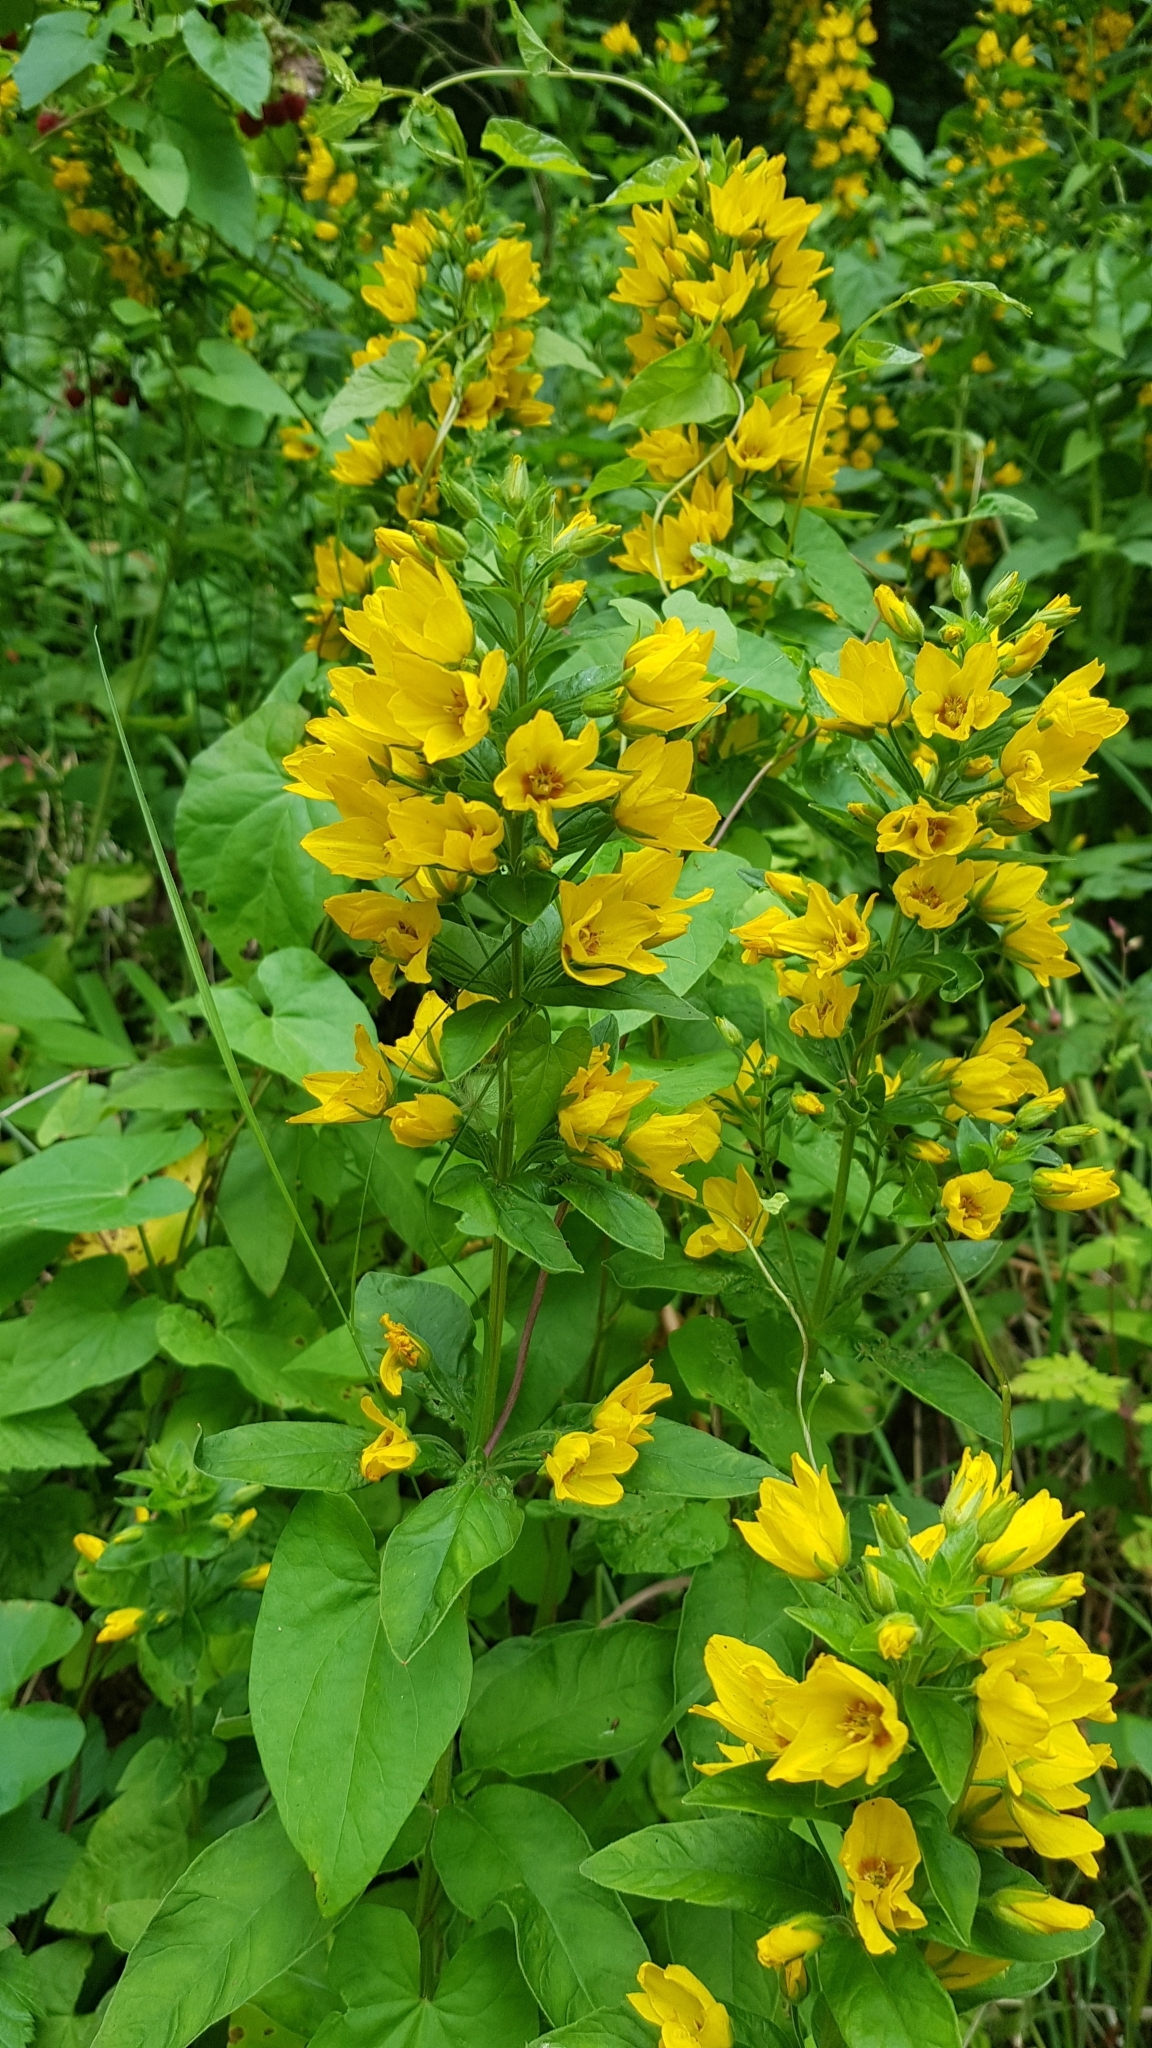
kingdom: Plantae
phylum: Tracheophyta
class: Magnoliopsida
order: Ericales
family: Primulaceae
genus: Lysimachia
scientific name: Lysimachia punctata
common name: Dotted loosestrife
